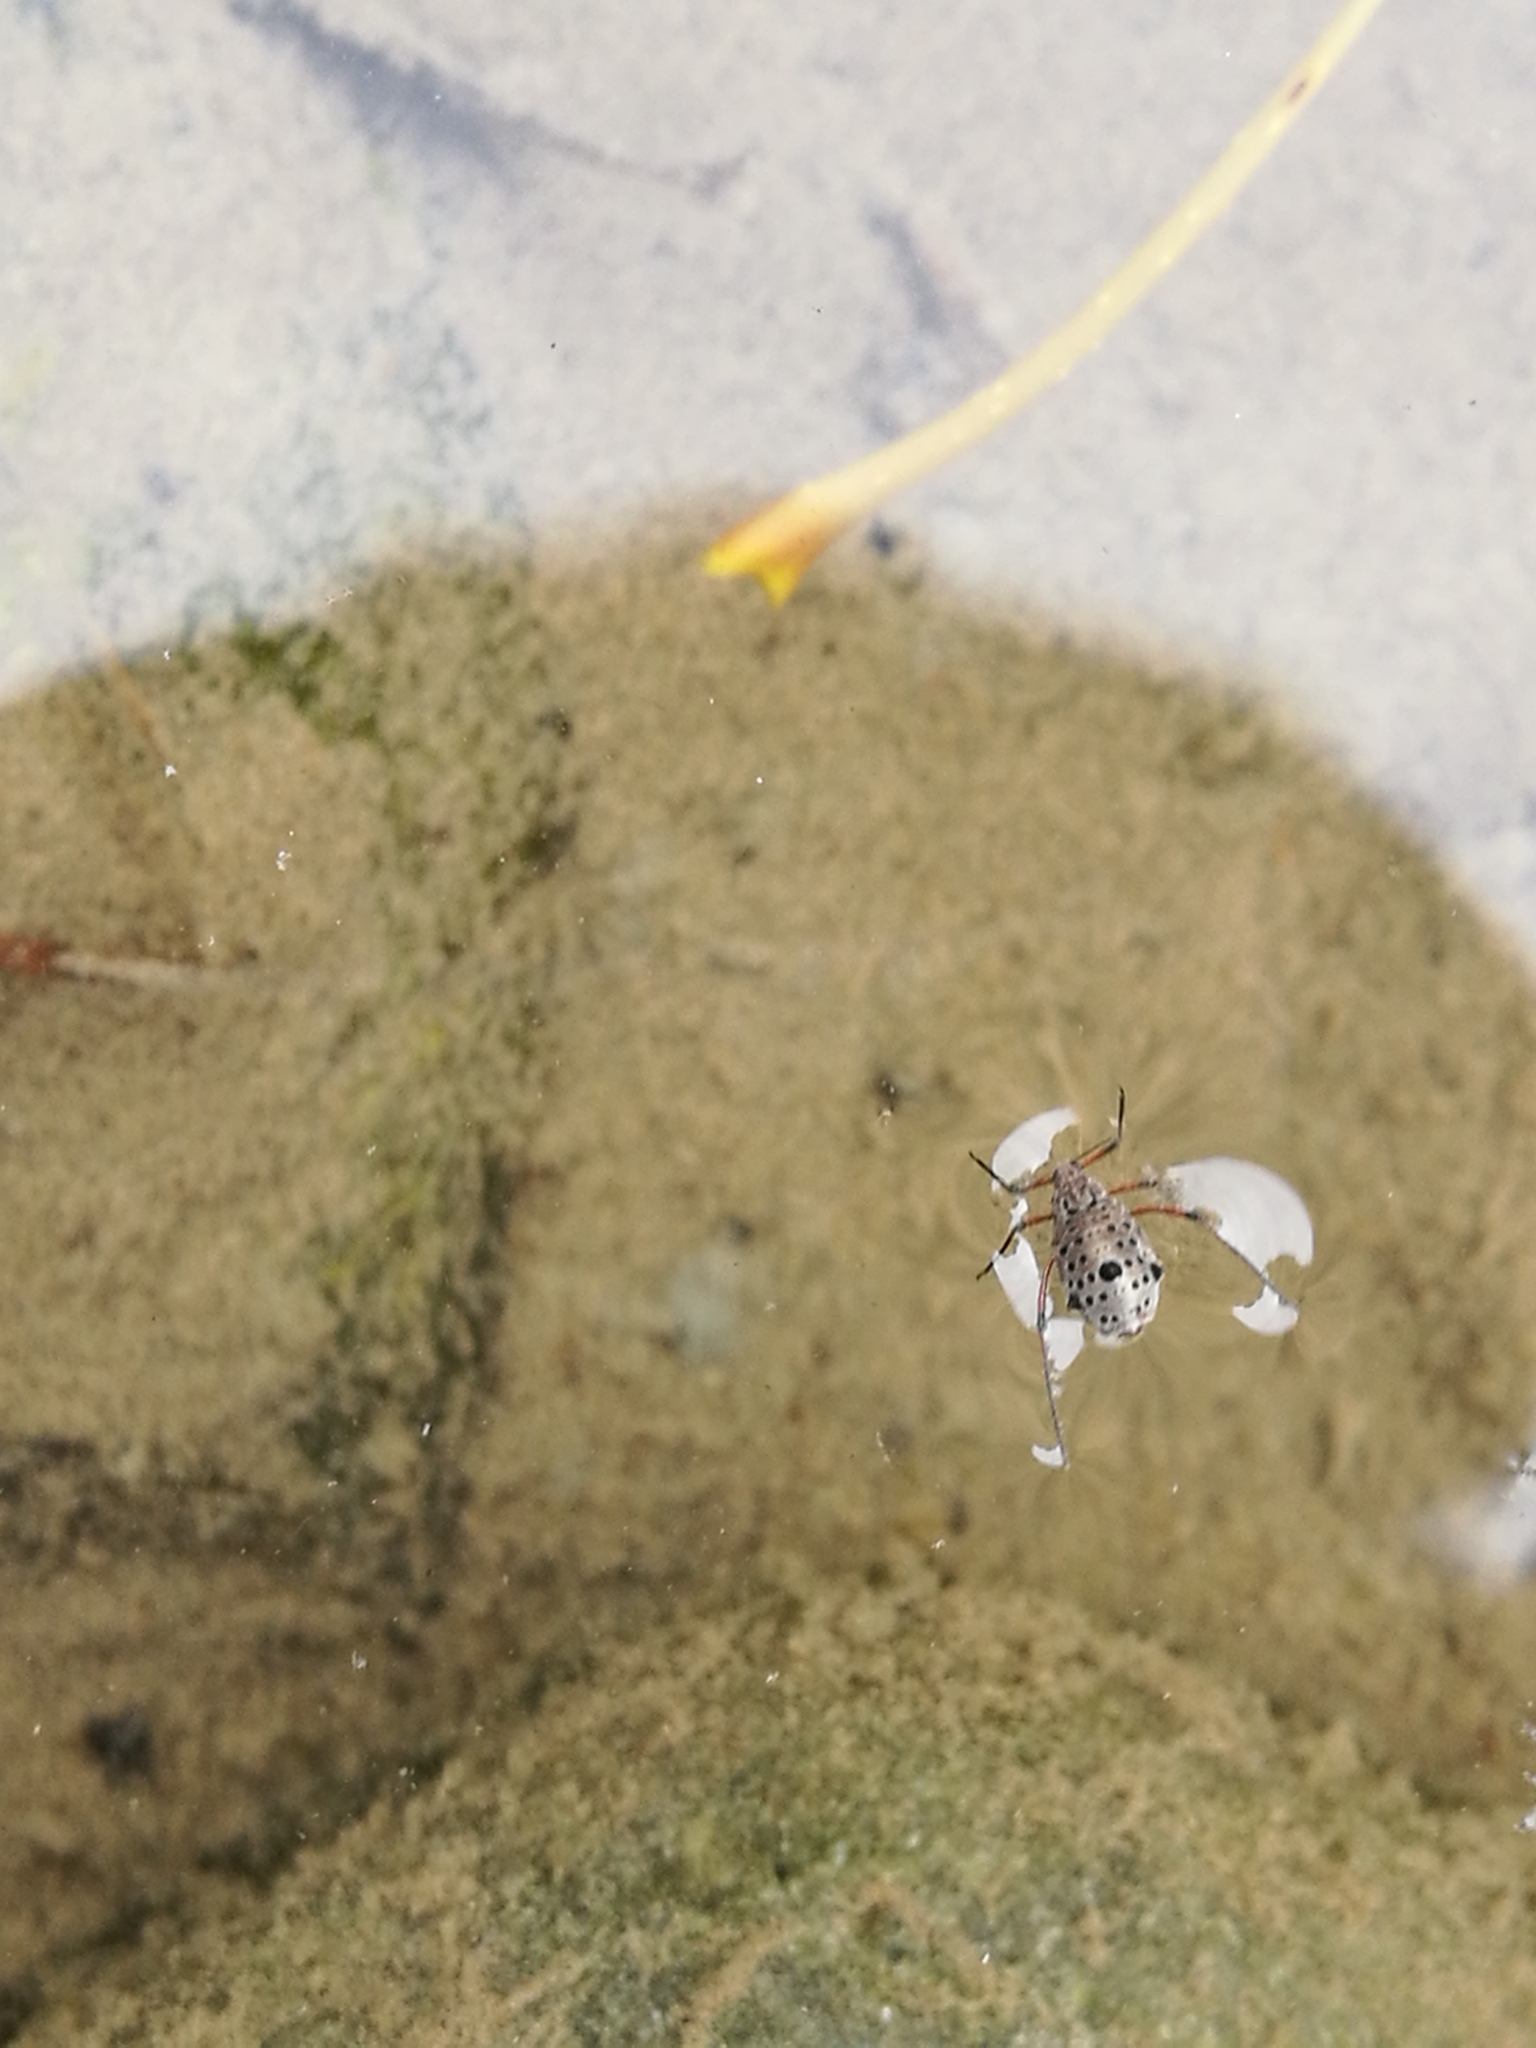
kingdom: Animalia
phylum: Arthropoda
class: Insecta
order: Hemiptera
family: Aphididae
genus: Tuberolachnus
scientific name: Tuberolachnus salignus
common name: Giant willow aphid
